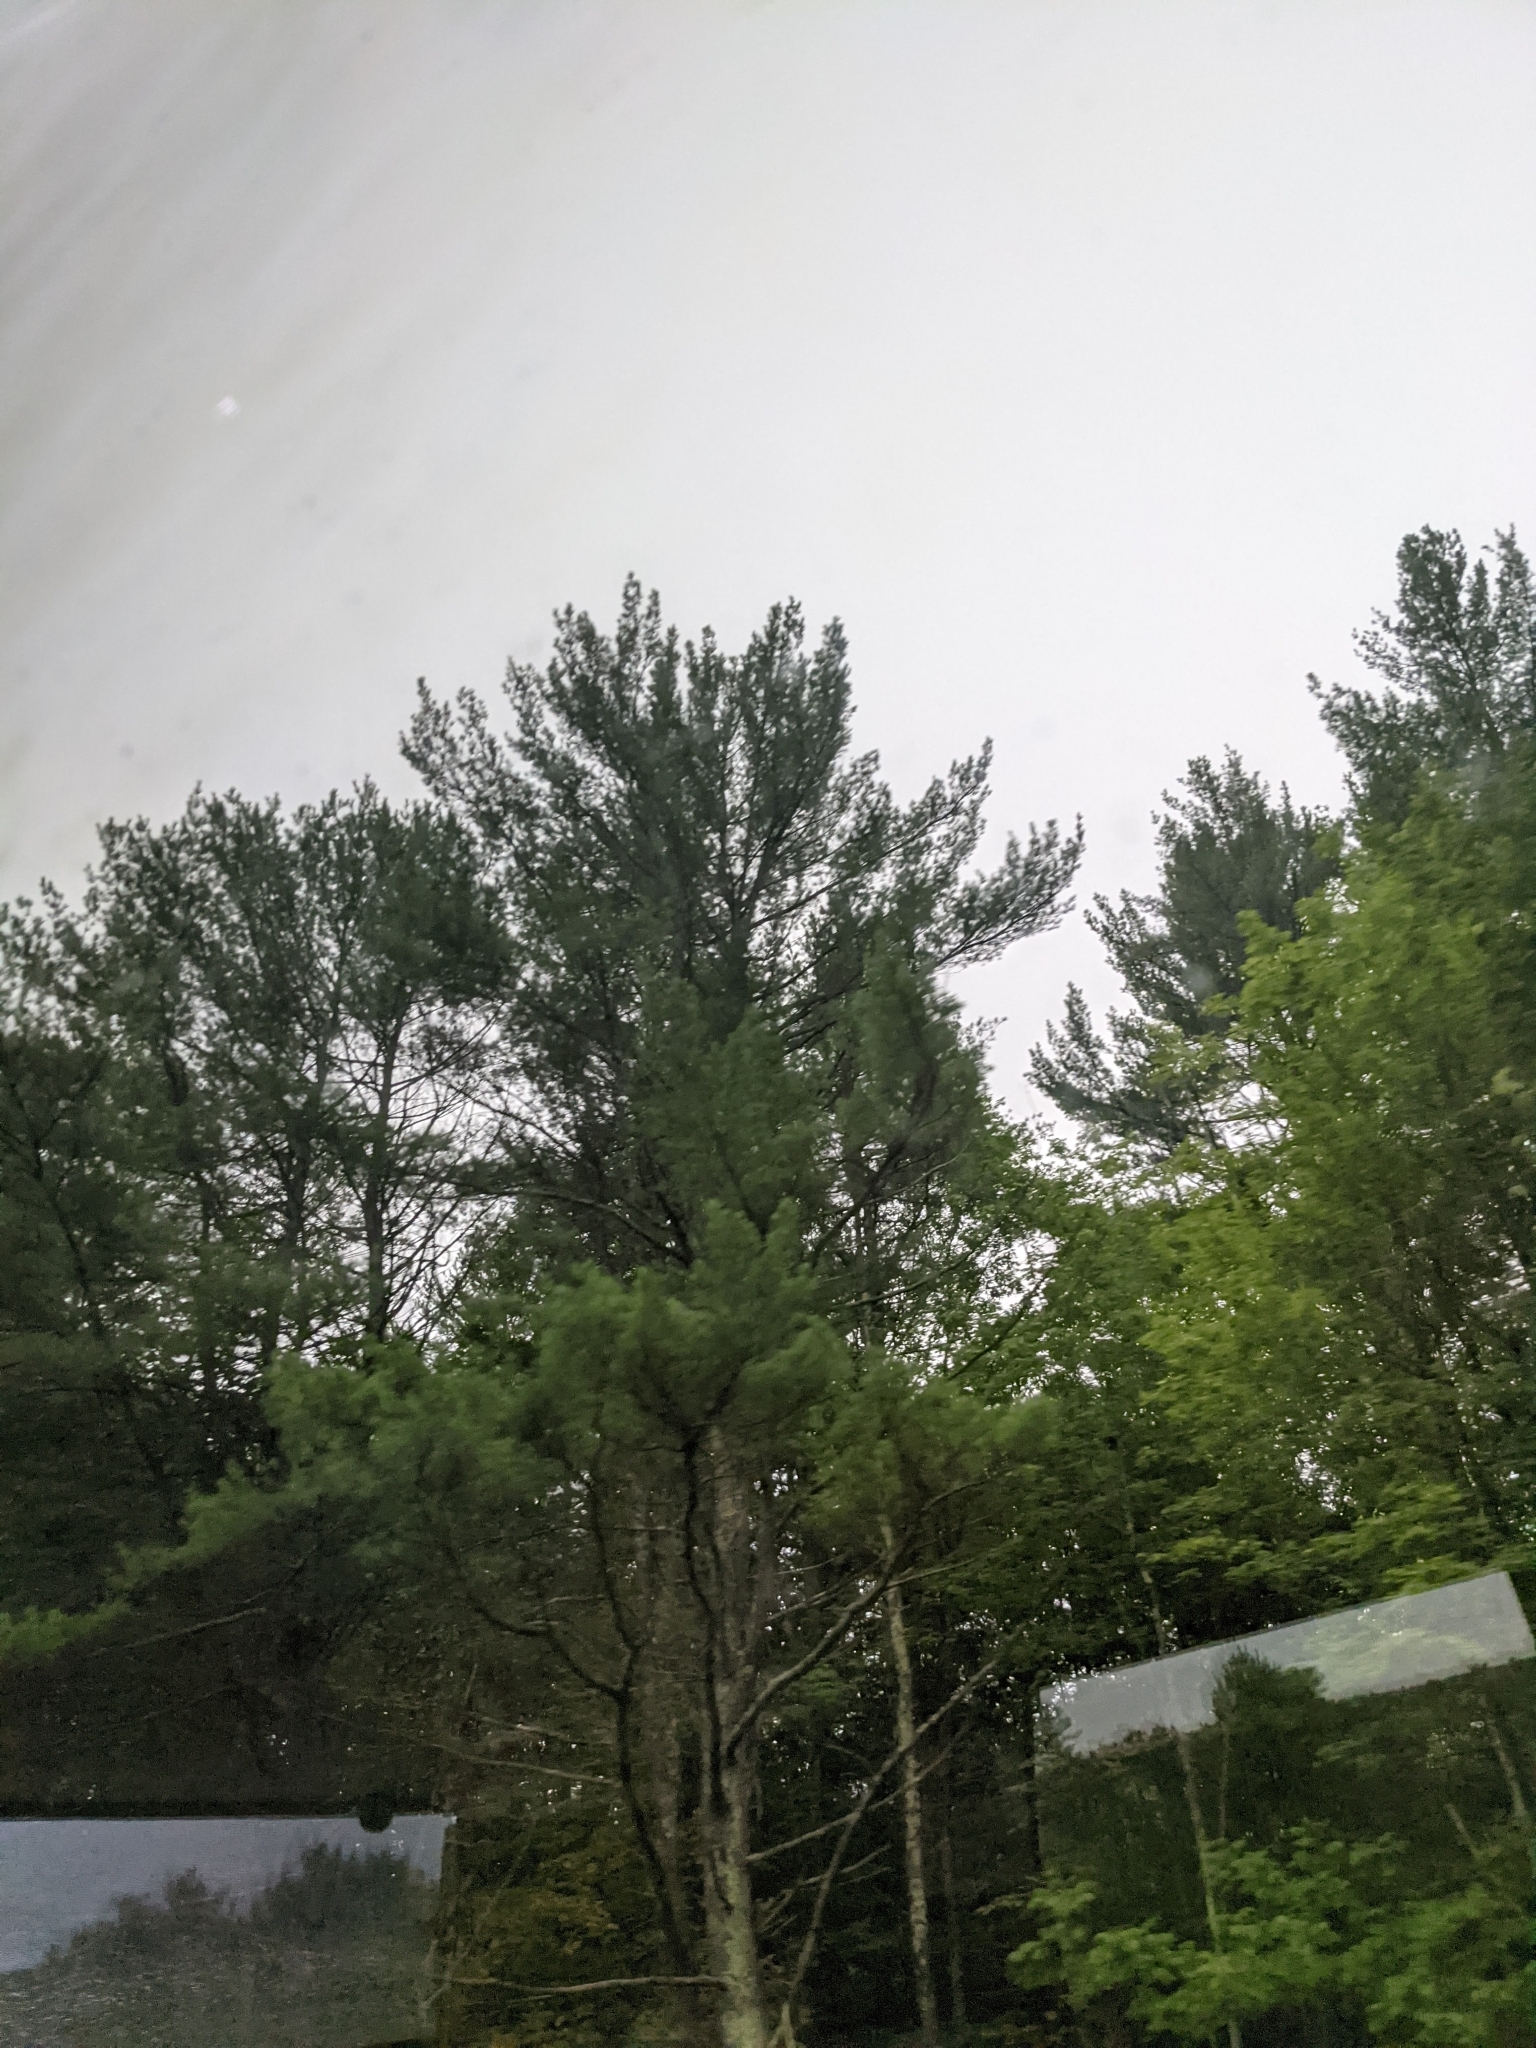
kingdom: Plantae
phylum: Tracheophyta
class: Pinopsida
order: Pinales
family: Pinaceae
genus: Pinus
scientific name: Pinus strobus
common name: Weymouth pine
